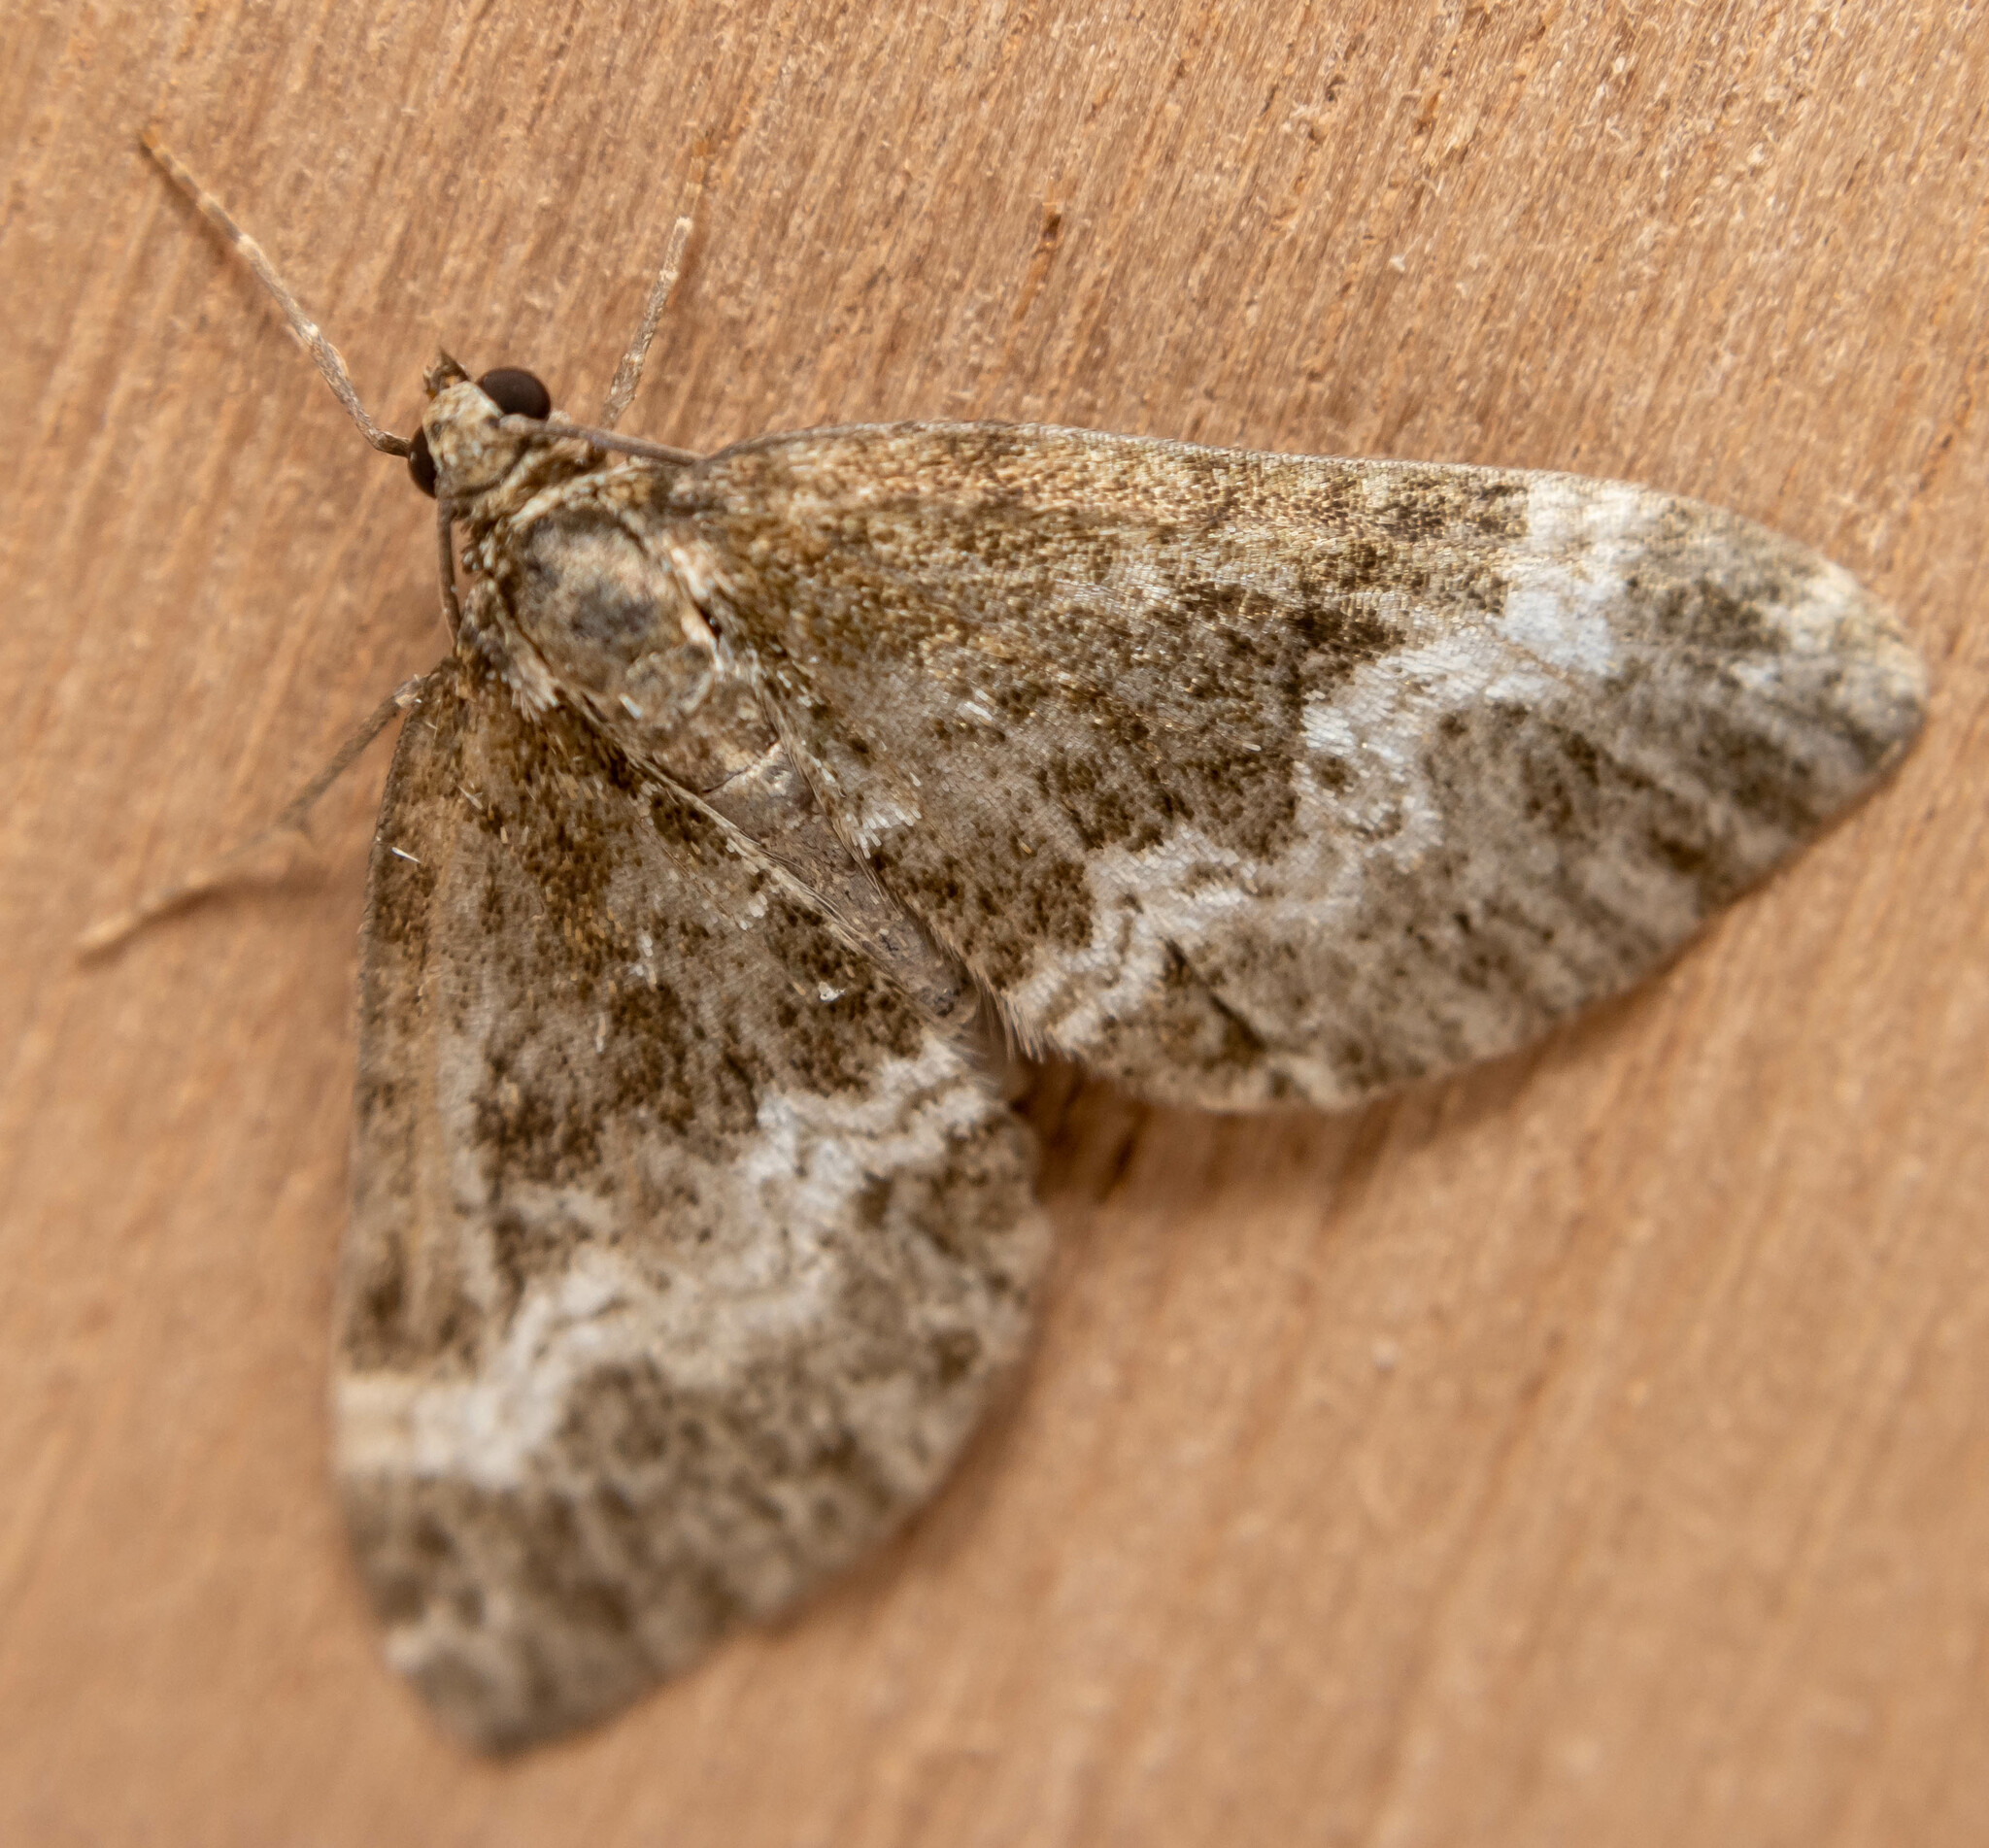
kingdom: Animalia
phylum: Arthropoda
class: Insecta
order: Lepidoptera
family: Geometridae
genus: Perizoma
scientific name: Perizoma affinitata
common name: Rivulet
